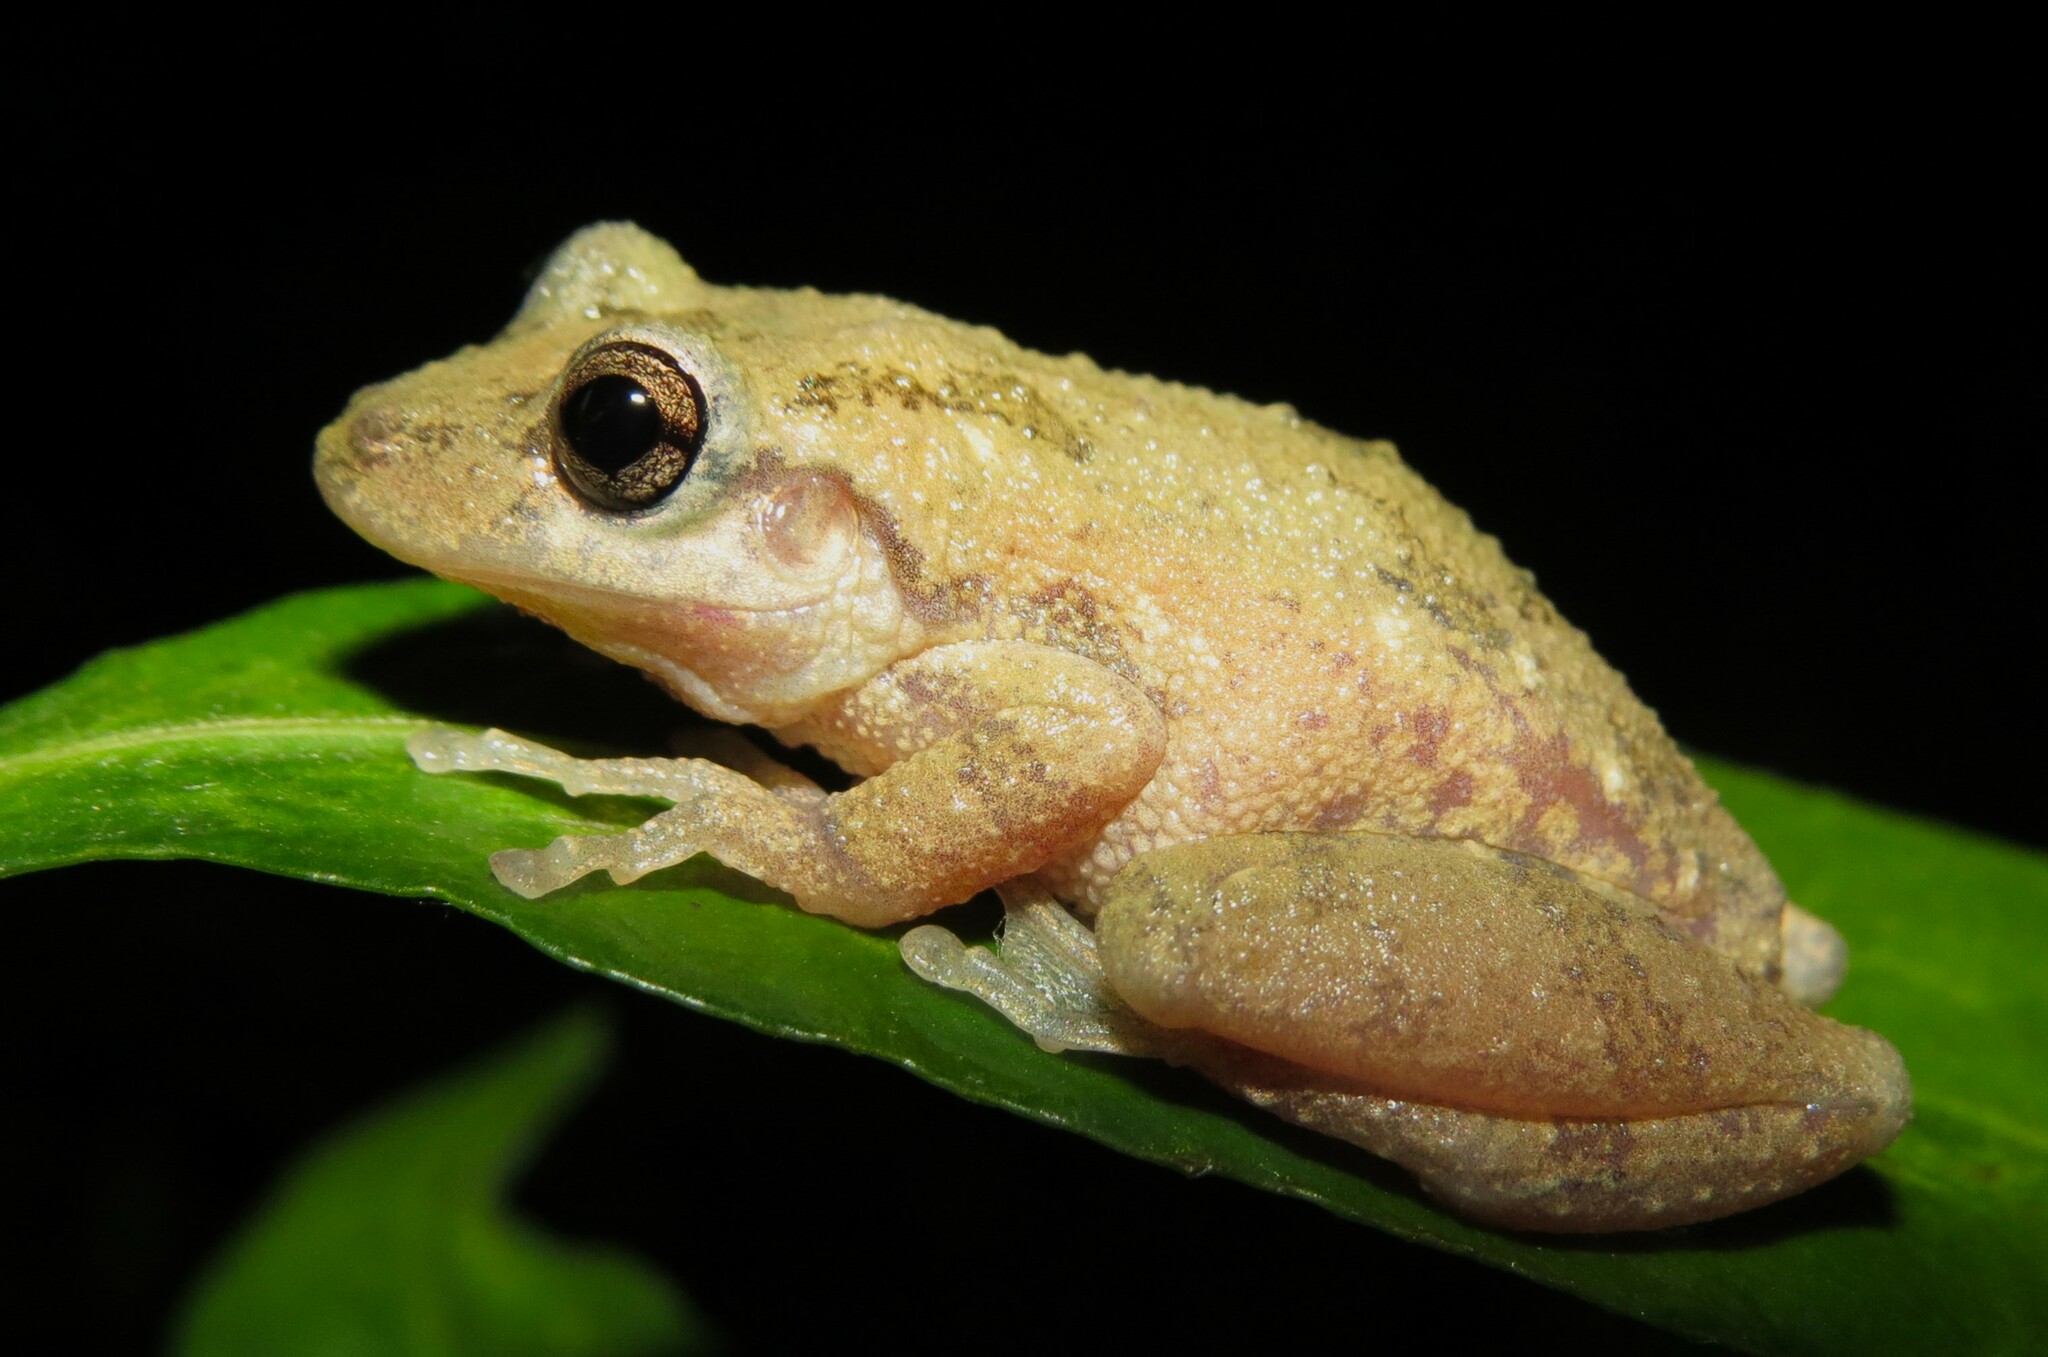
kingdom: Animalia
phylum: Chordata
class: Amphibia
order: Anura
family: Hylidae
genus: Scinax
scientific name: Scinax granulatus
